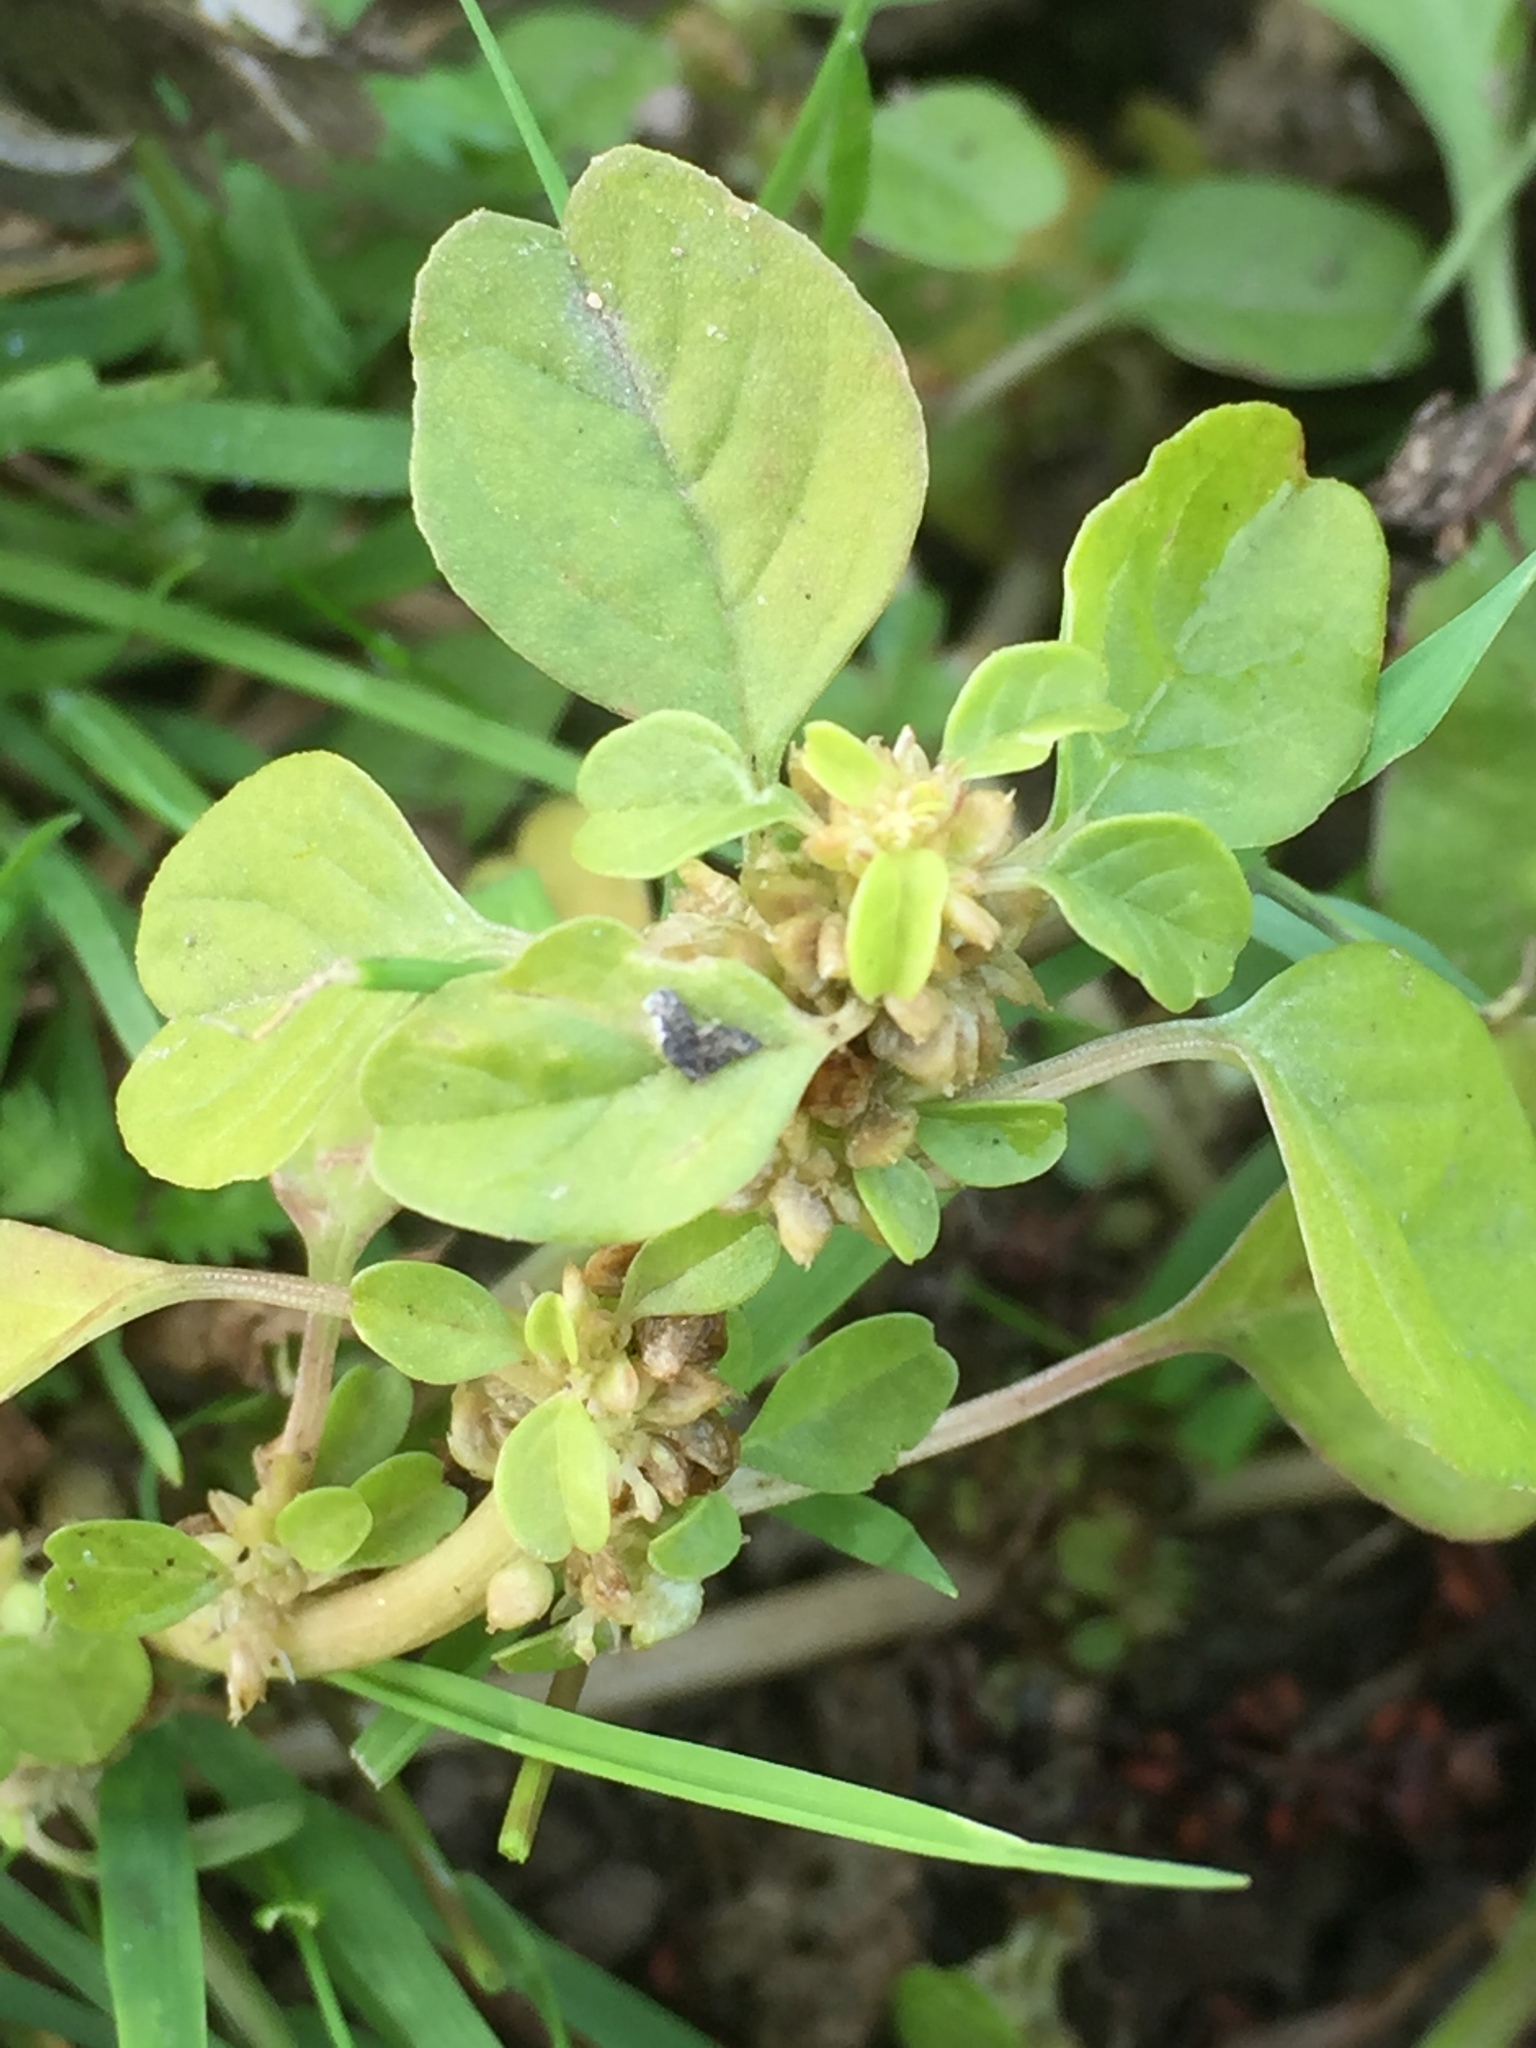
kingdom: Plantae
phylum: Tracheophyta
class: Magnoliopsida
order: Caryophyllales
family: Amaranthaceae
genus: Amaranthus
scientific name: Amaranthus blitum
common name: Purple amaranth
